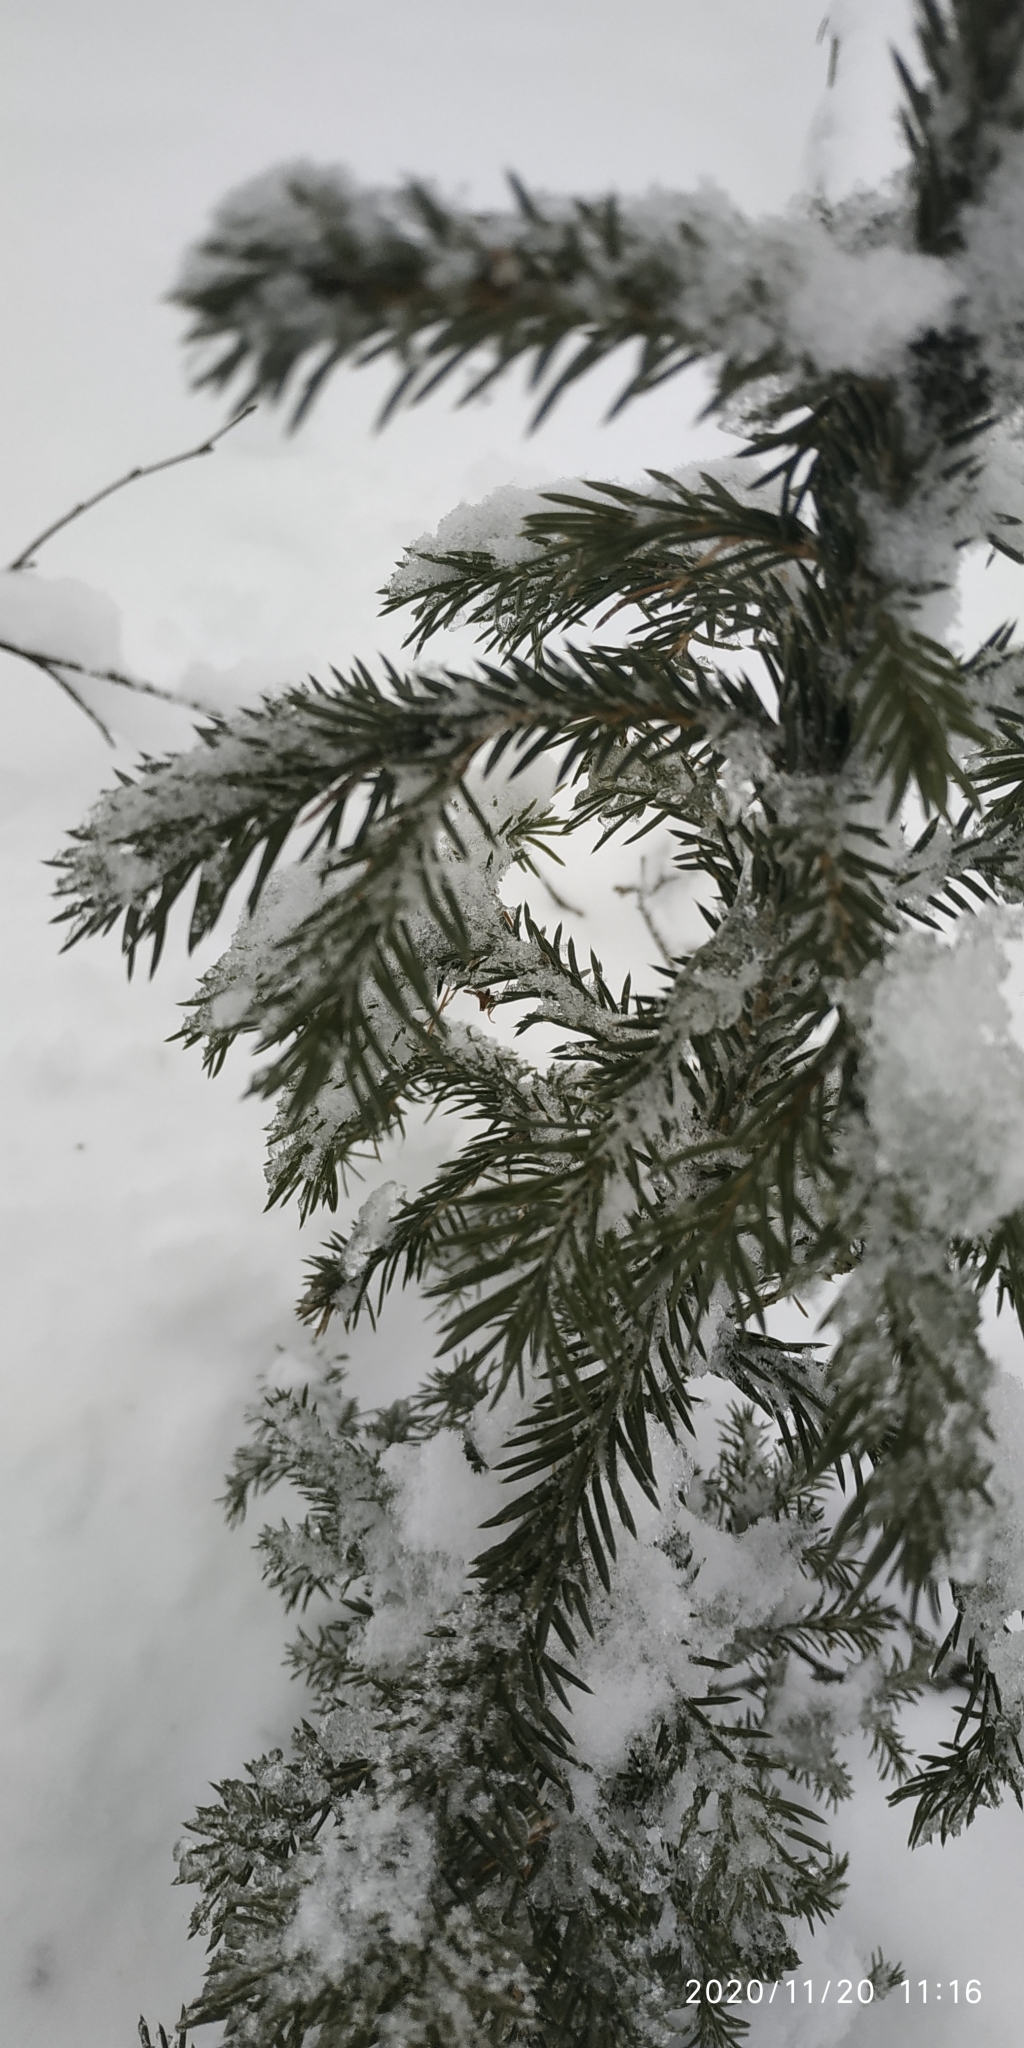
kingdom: Plantae
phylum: Tracheophyta
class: Pinopsida
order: Pinales
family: Pinaceae
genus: Picea
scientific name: Picea obovata
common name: Siberian spruce
